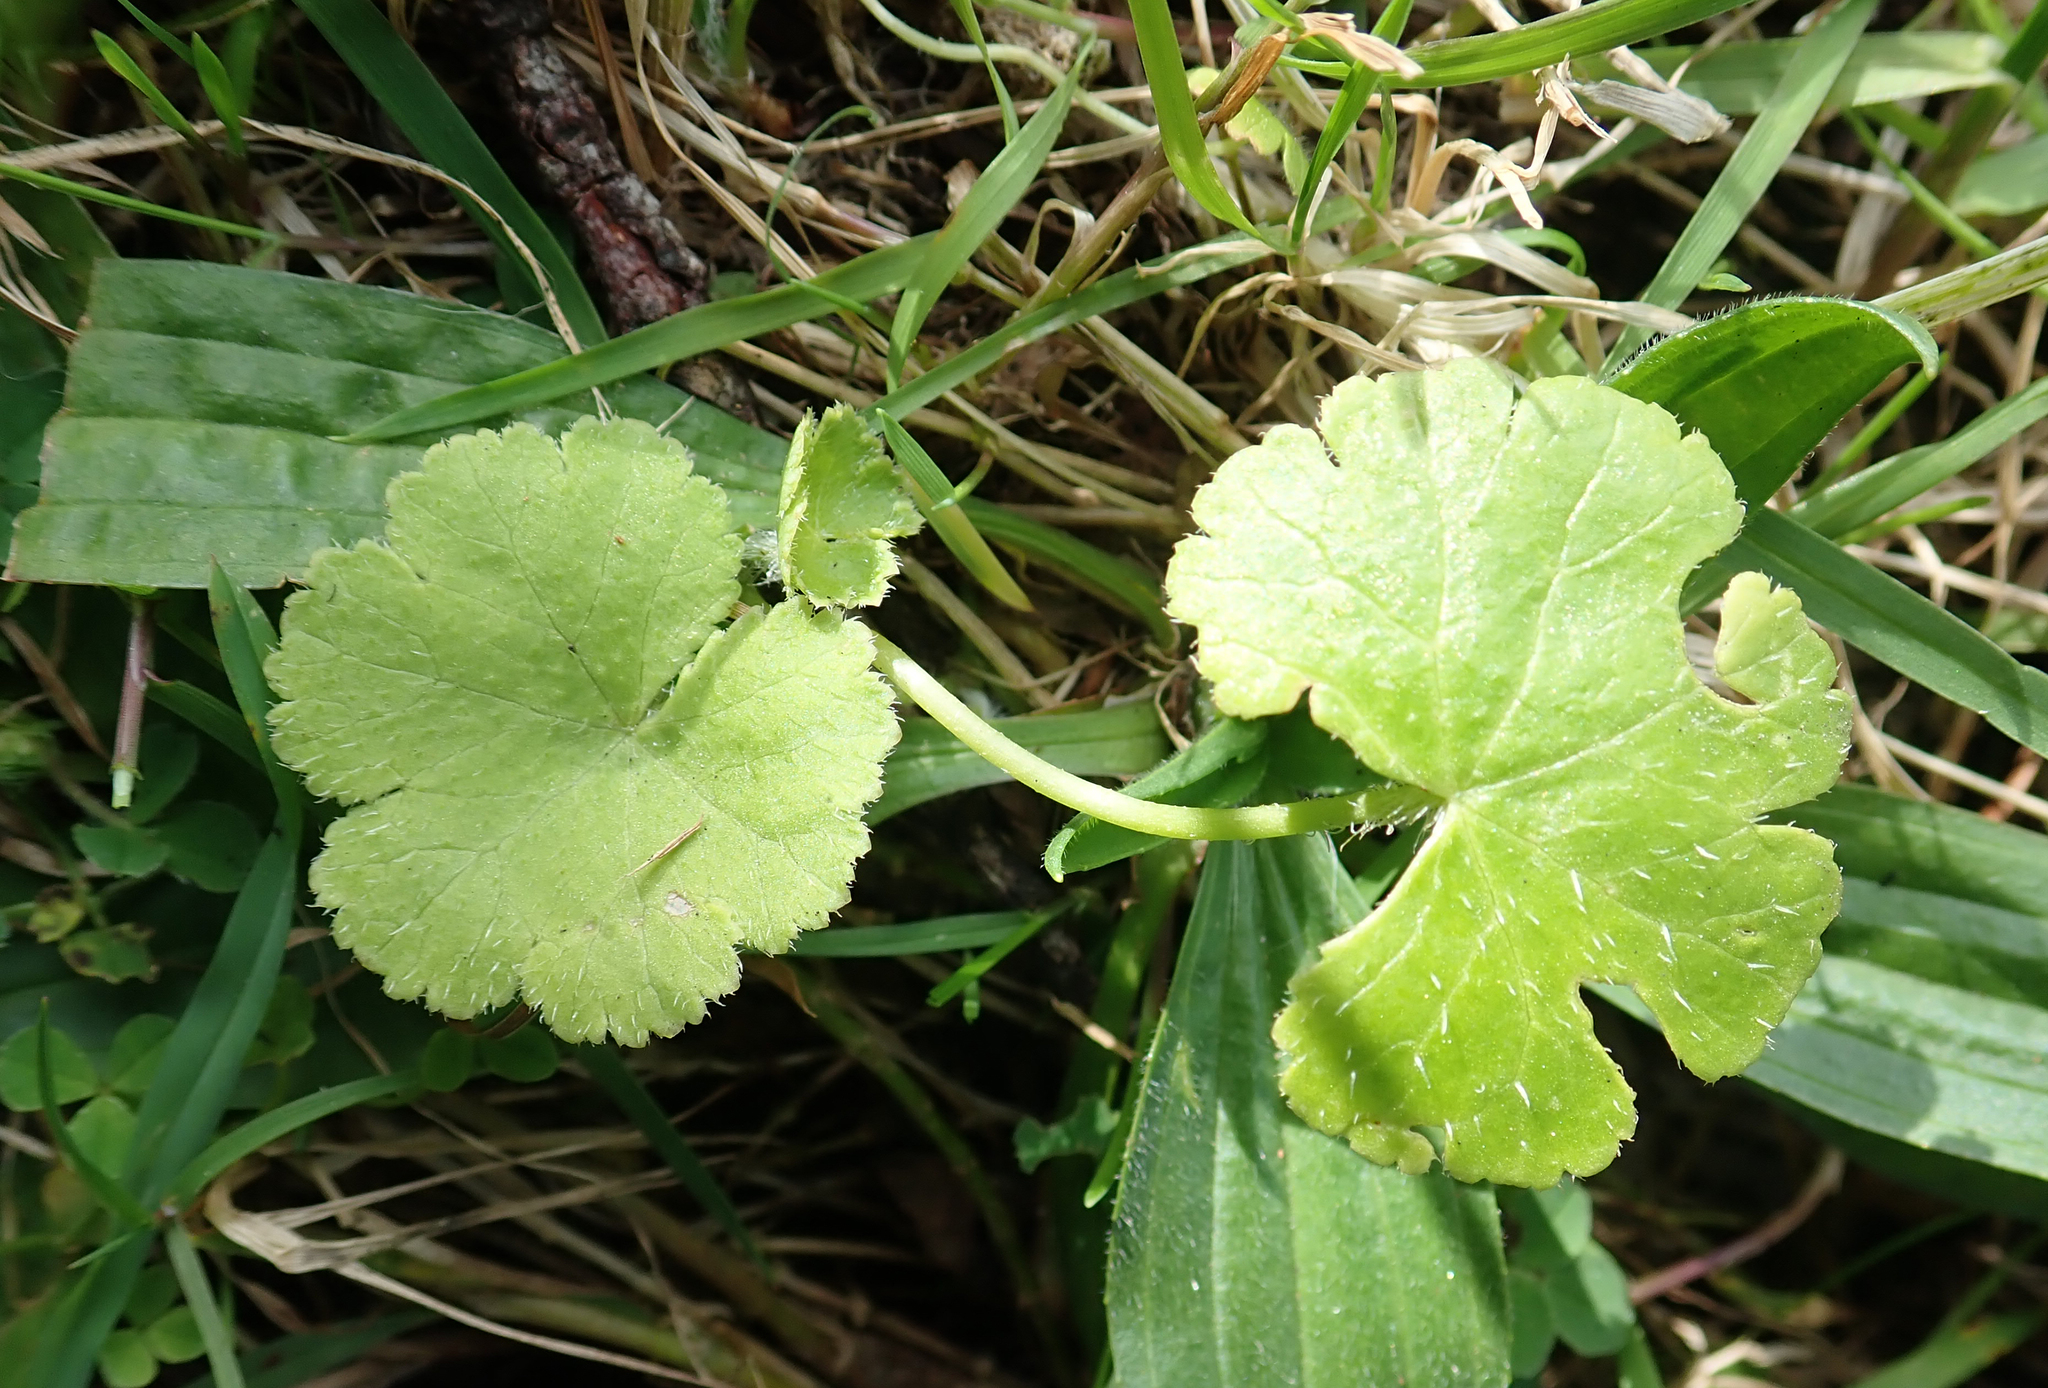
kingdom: Plantae
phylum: Tracheophyta
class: Magnoliopsida
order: Apiales
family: Araliaceae
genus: Hydrocotyle
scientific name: Hydrocotyle robusta
